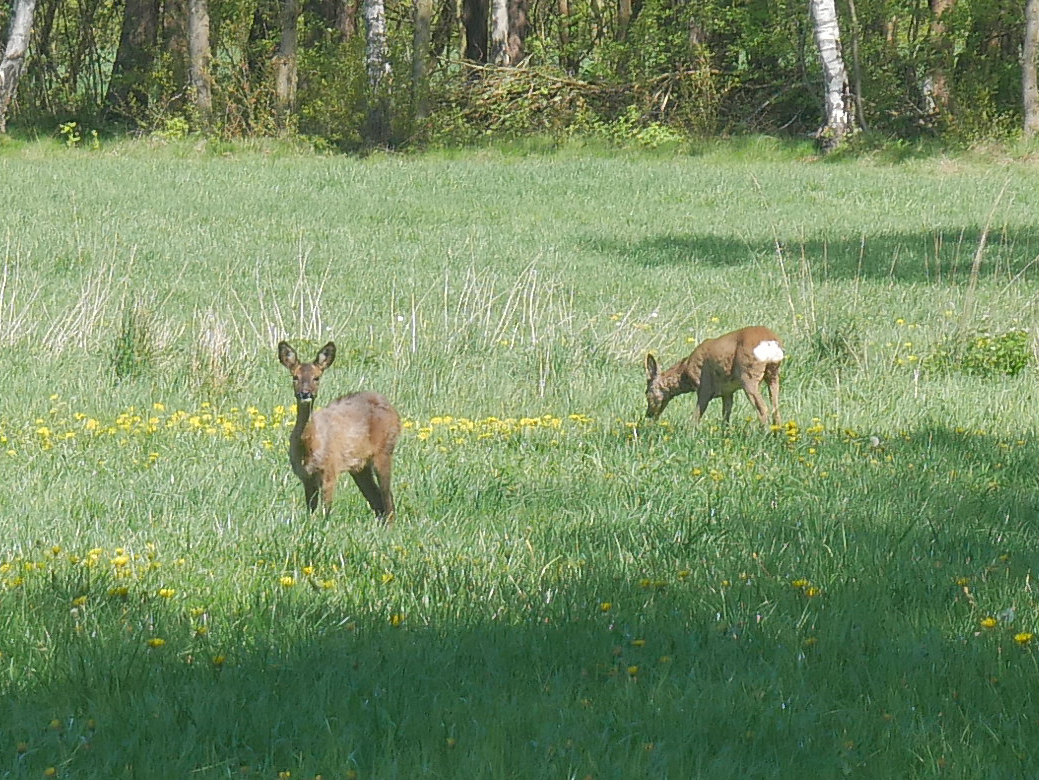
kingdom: Animalia
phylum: Chordata
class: Mammalia
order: Artiodactyla
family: Cervidae
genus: Capreolus
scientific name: Capreolus capreolus
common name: Western roe deer
